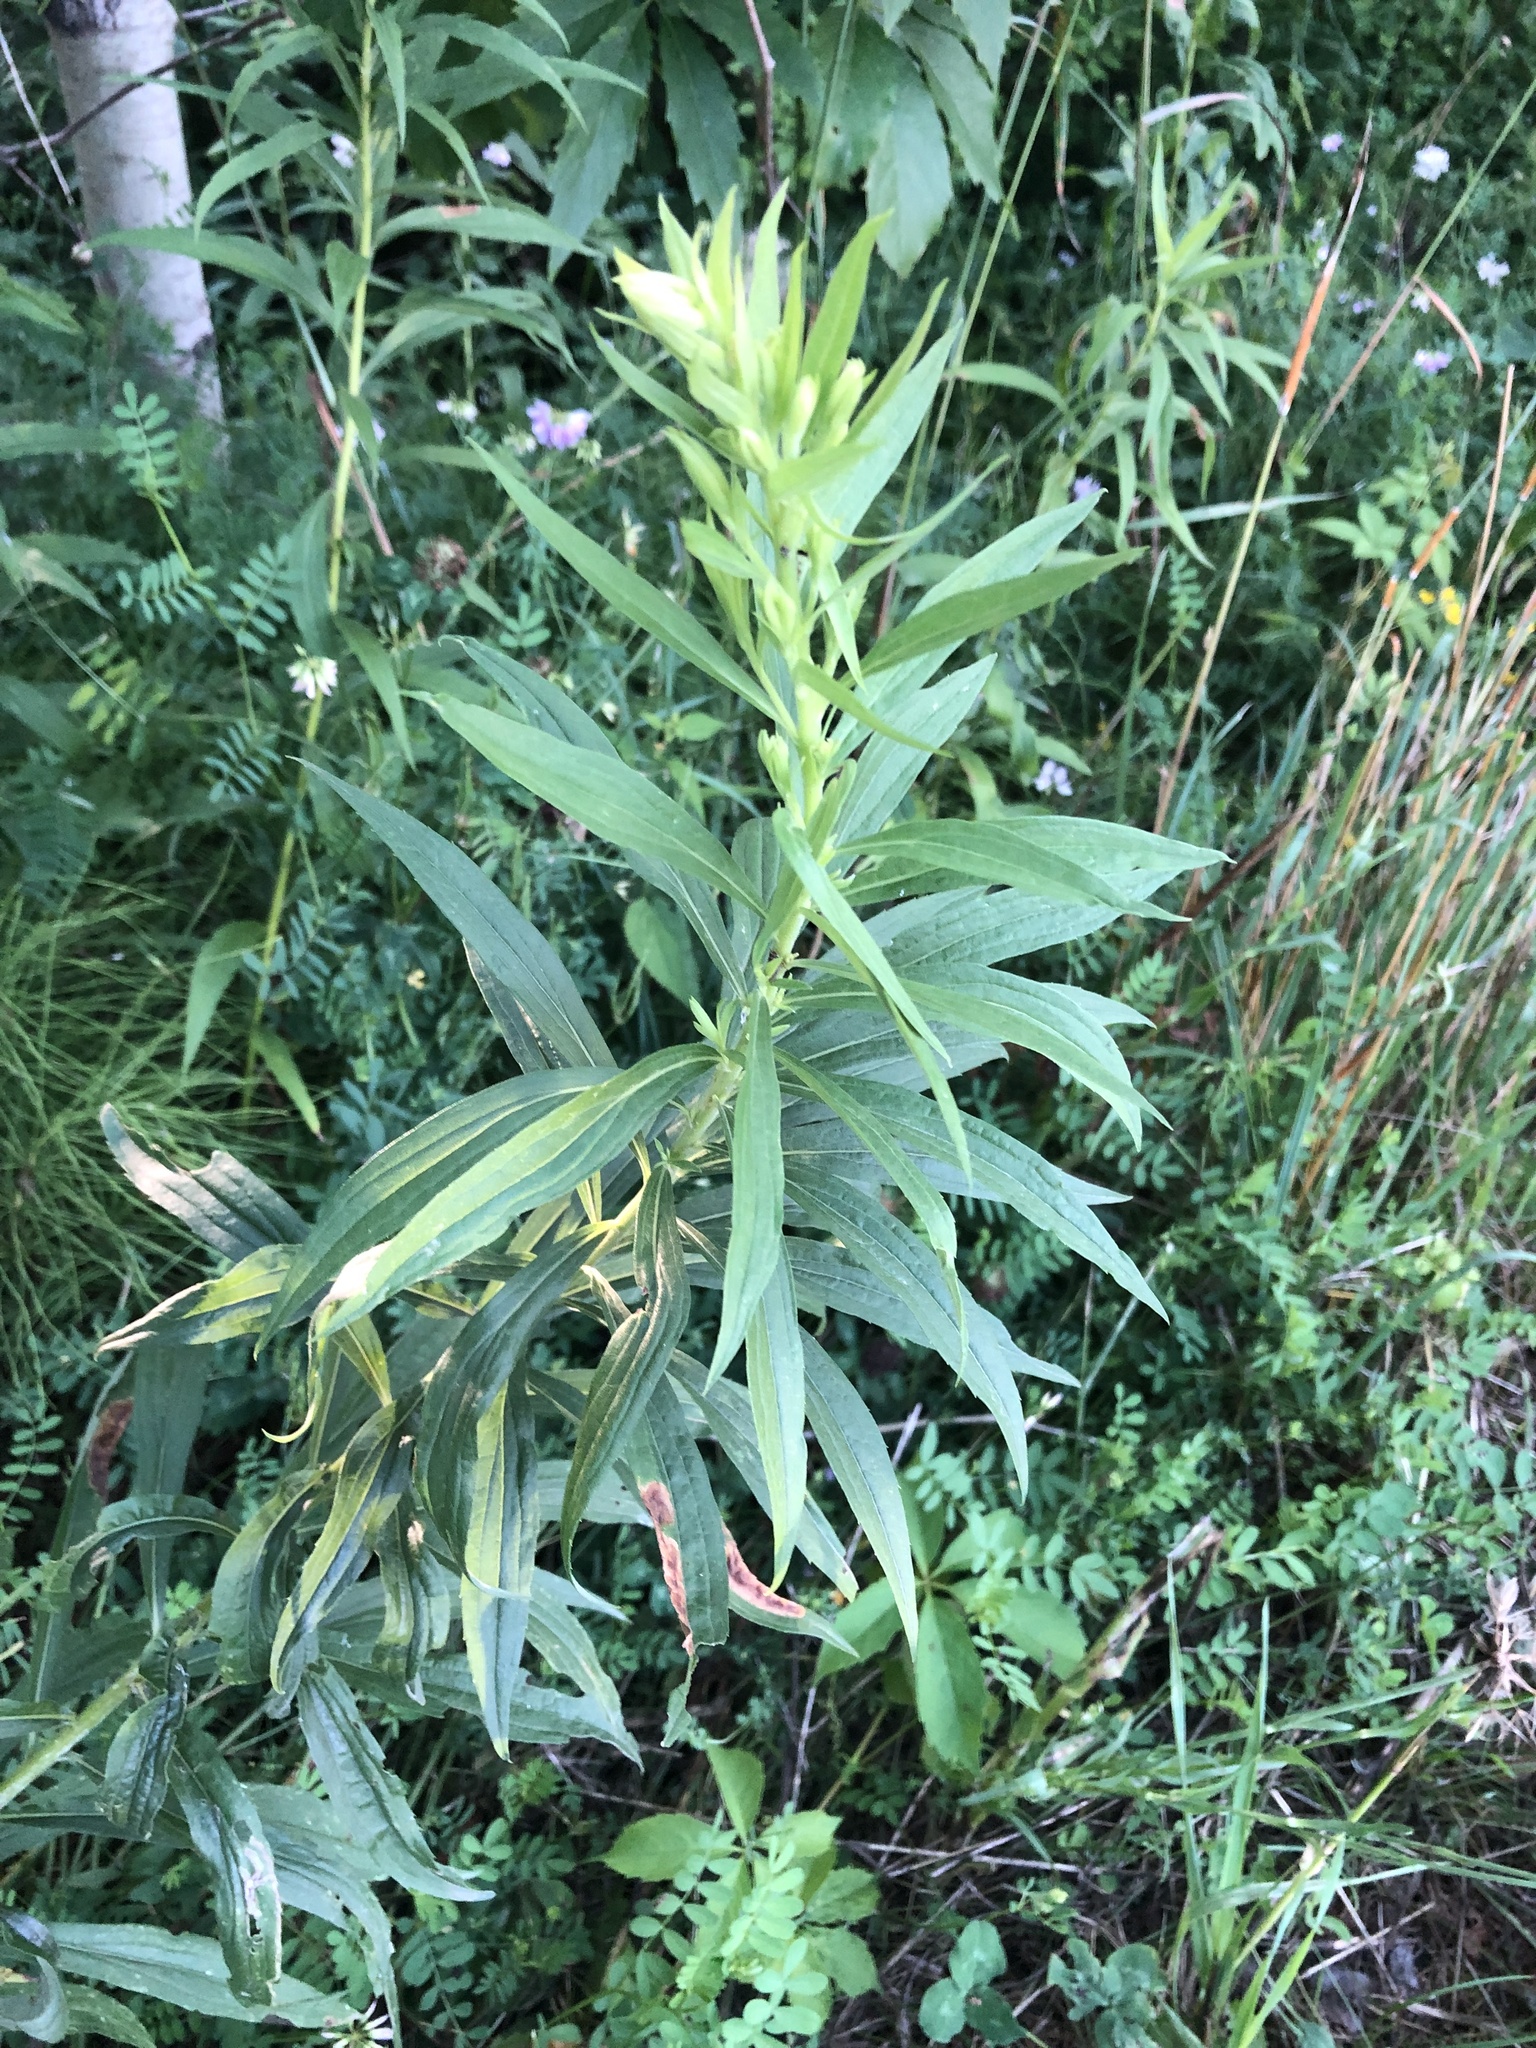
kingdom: Plantae
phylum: Tracheophyta
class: Magnoliopsida
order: Asterales
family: Asteraceae
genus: Solidago
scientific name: Solidago altissima
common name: Late goldenrod
